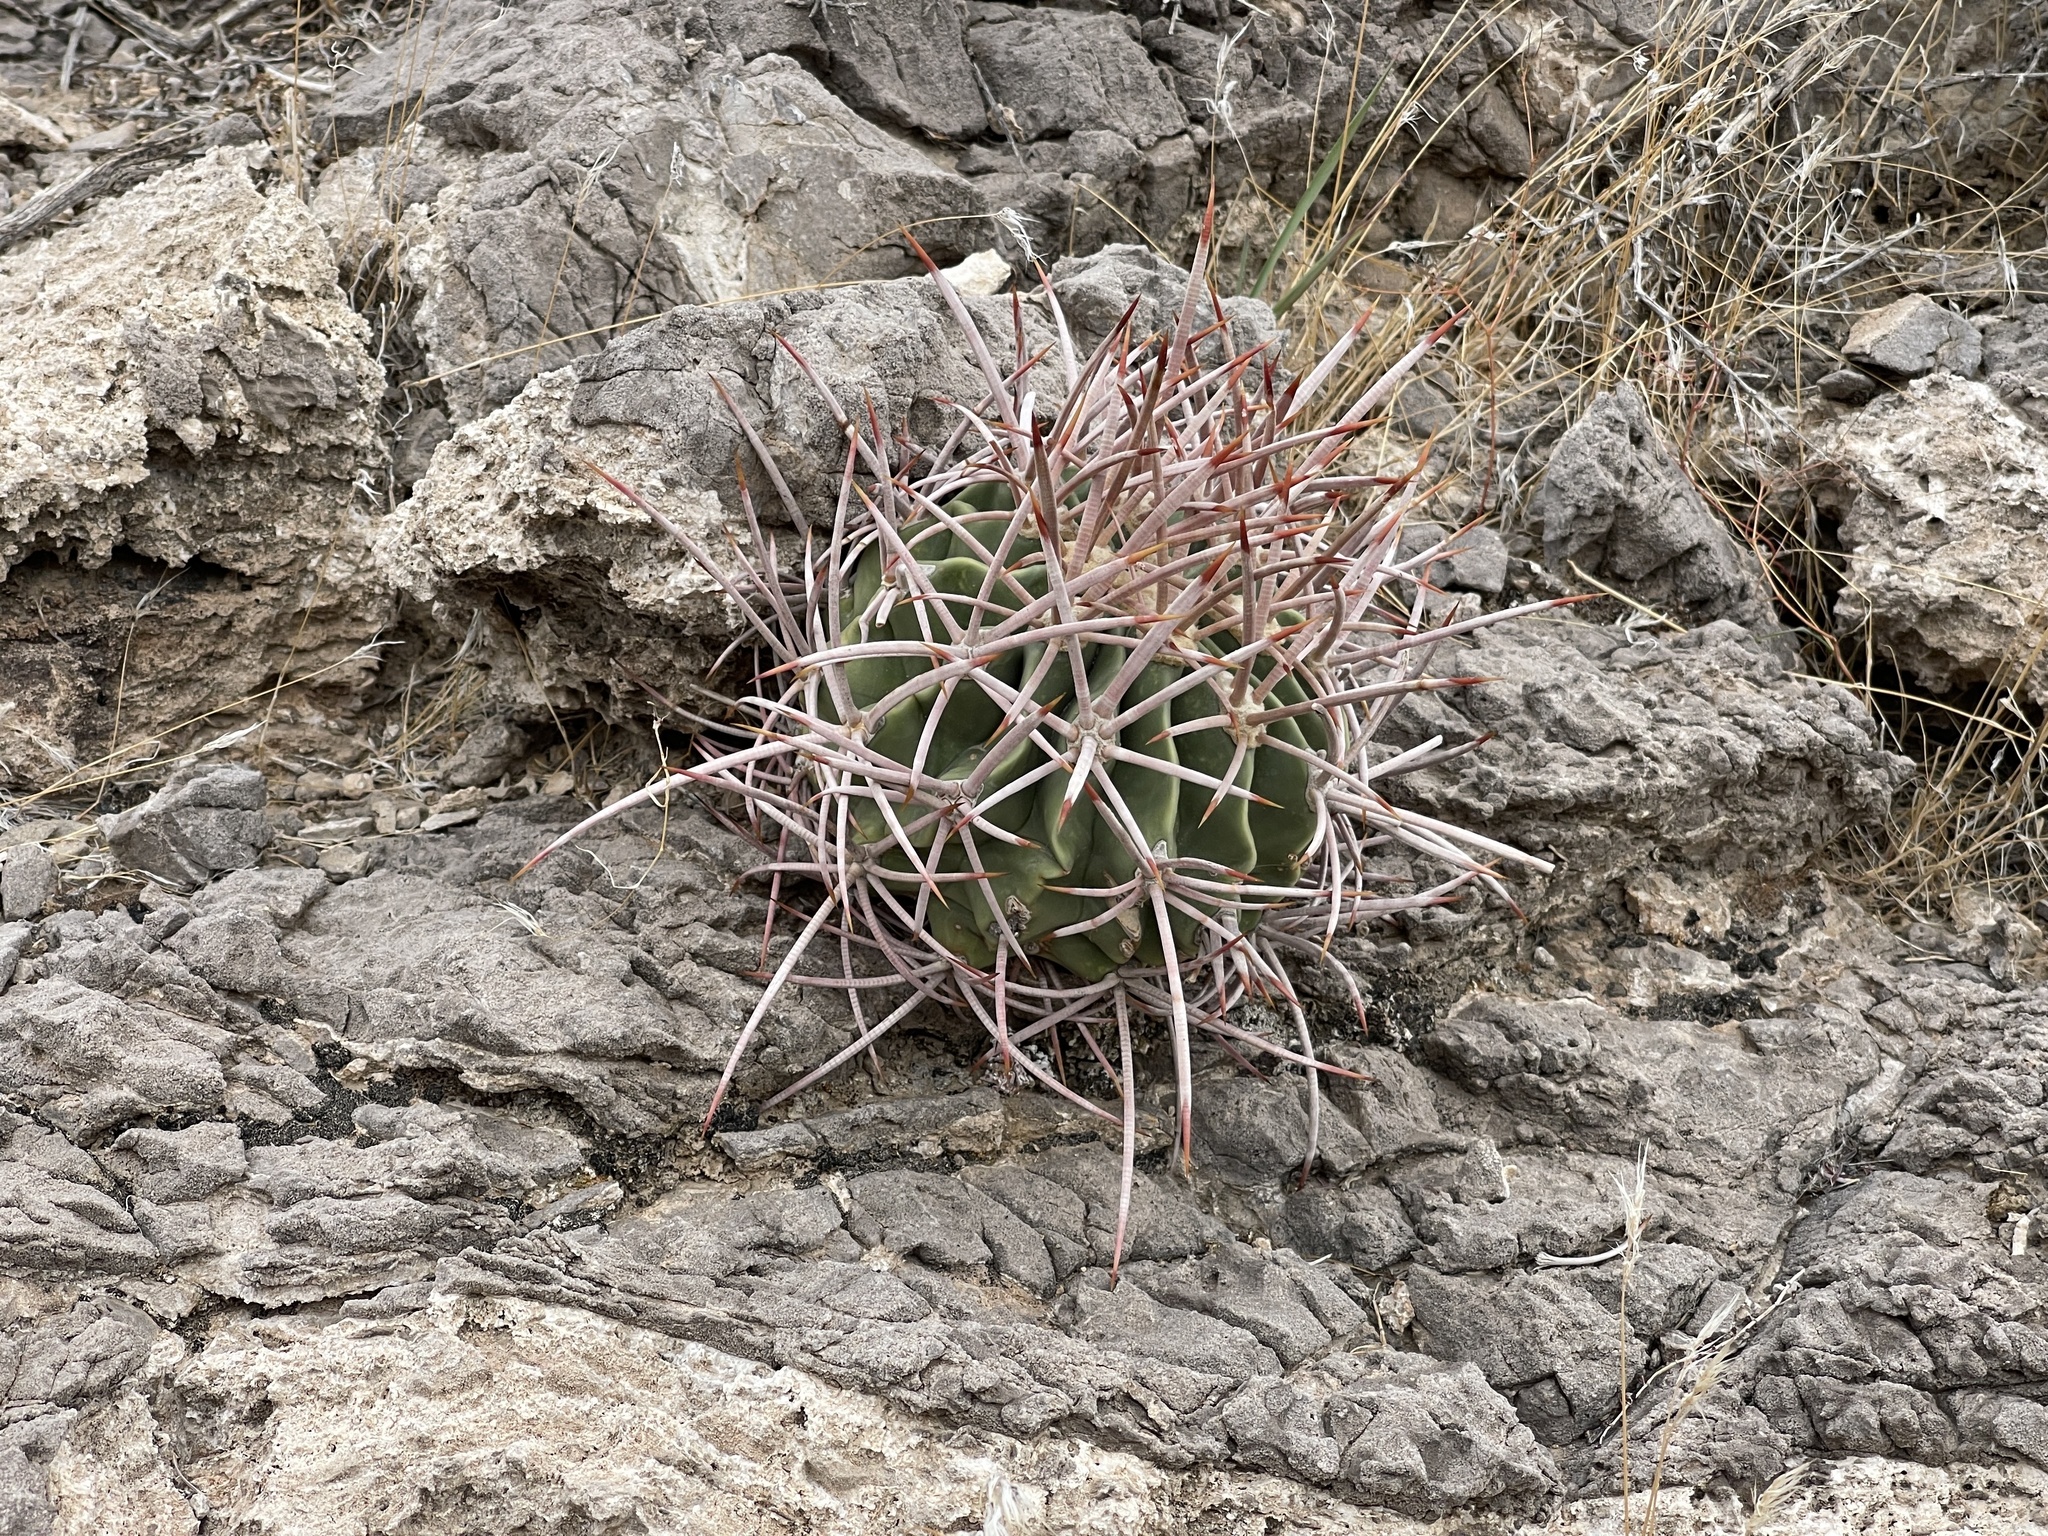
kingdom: Plantae
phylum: Tracheophyta
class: Magnoliopsida
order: Caryophyllales
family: Cactaceae
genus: Echinocactus
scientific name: Echinocactus polycephalus
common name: Cottontop cactus
